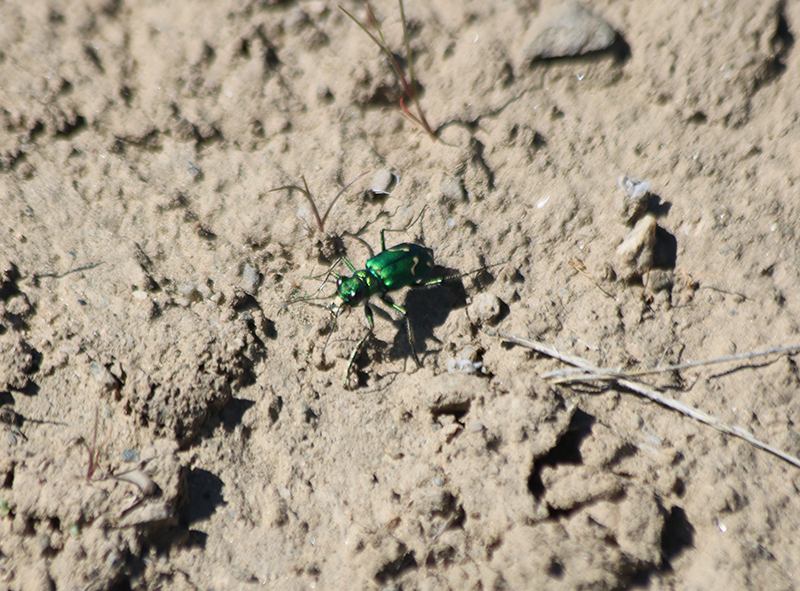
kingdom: Animalia
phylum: Arthropoda
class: Insecta
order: Coleoptera
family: Carabidae
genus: Cicindela
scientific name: Cicindela decemnotata
